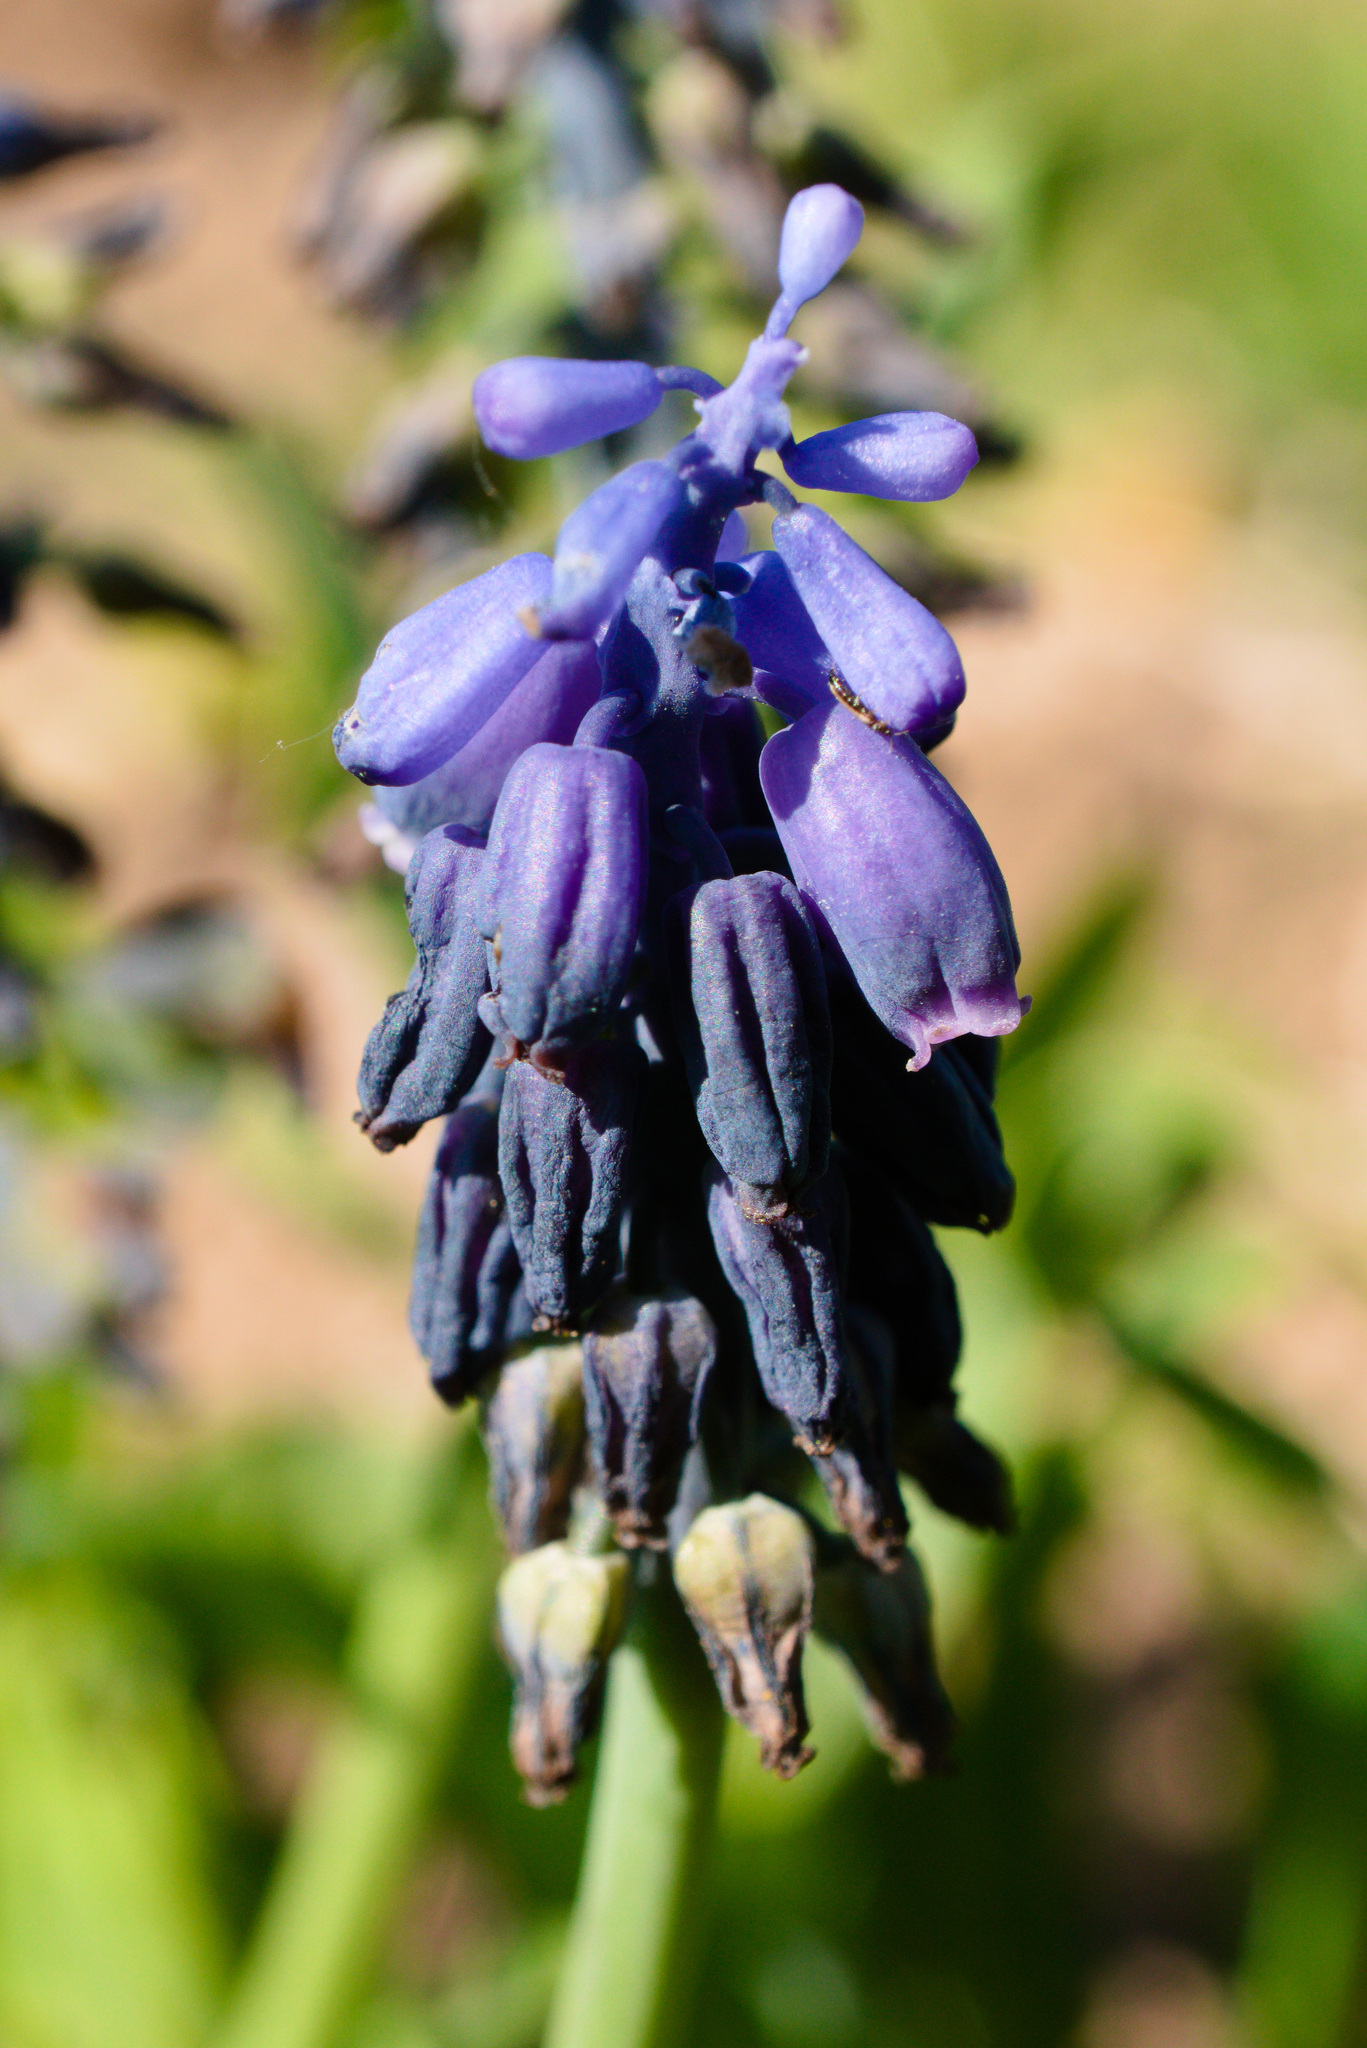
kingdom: Plantae
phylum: Tracheophyta
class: Liliopsida
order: Asparagales
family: Asparagaceae
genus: Muscari
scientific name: Muscari neglectum
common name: Grape-hyacinth
